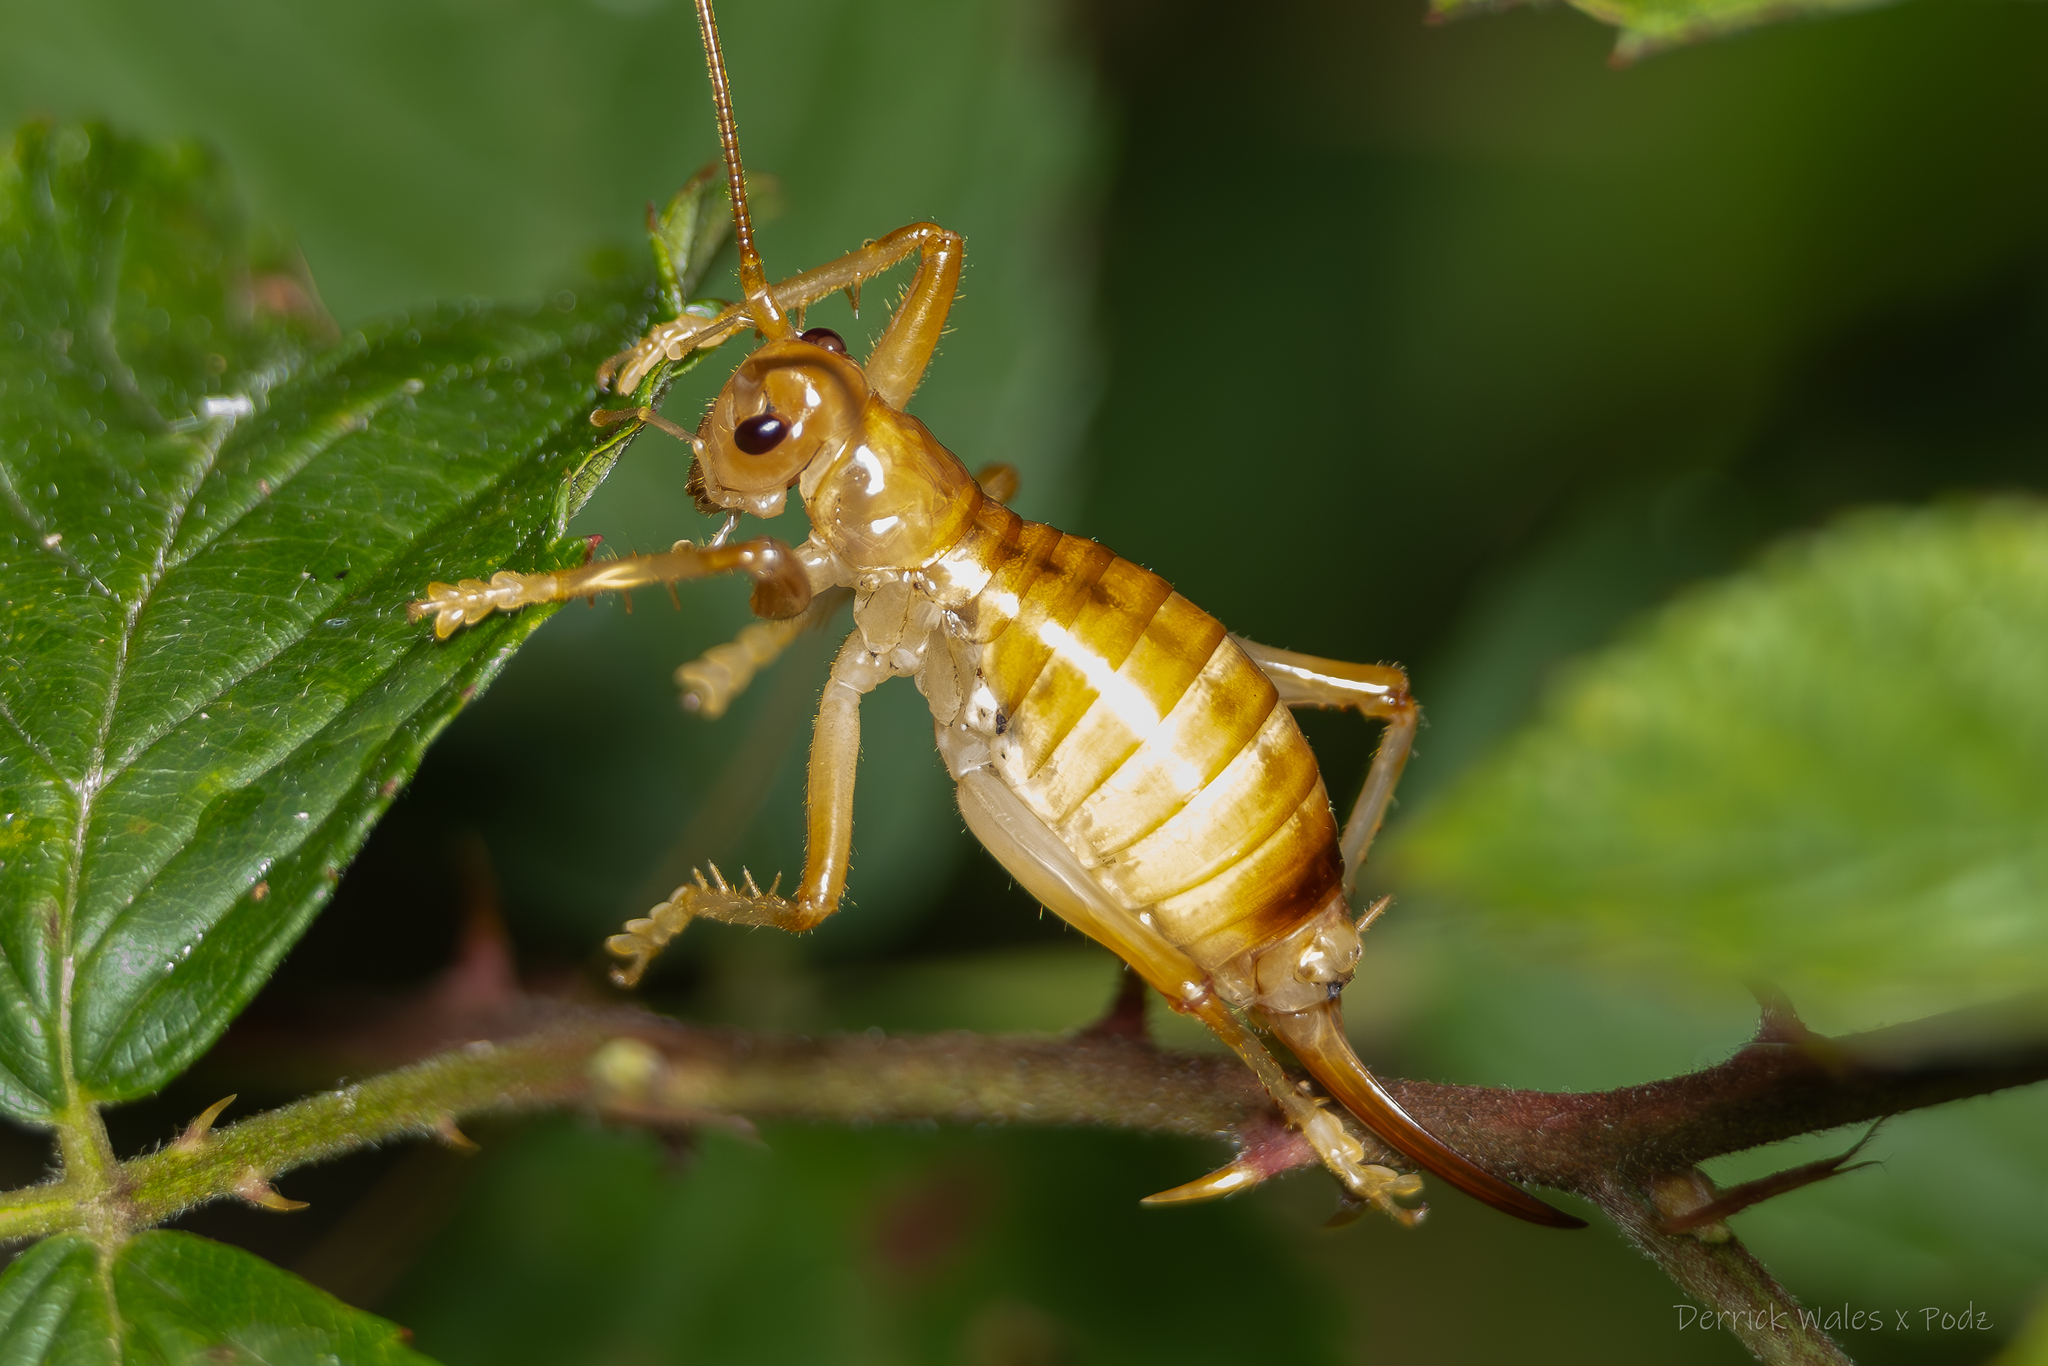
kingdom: Animalia
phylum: Arthropoda
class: Insecta
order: Orthoptera
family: Gryllacrididae
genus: Camptonotus
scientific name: Camptonotus carolinensis
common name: Carolina leaf-roller
